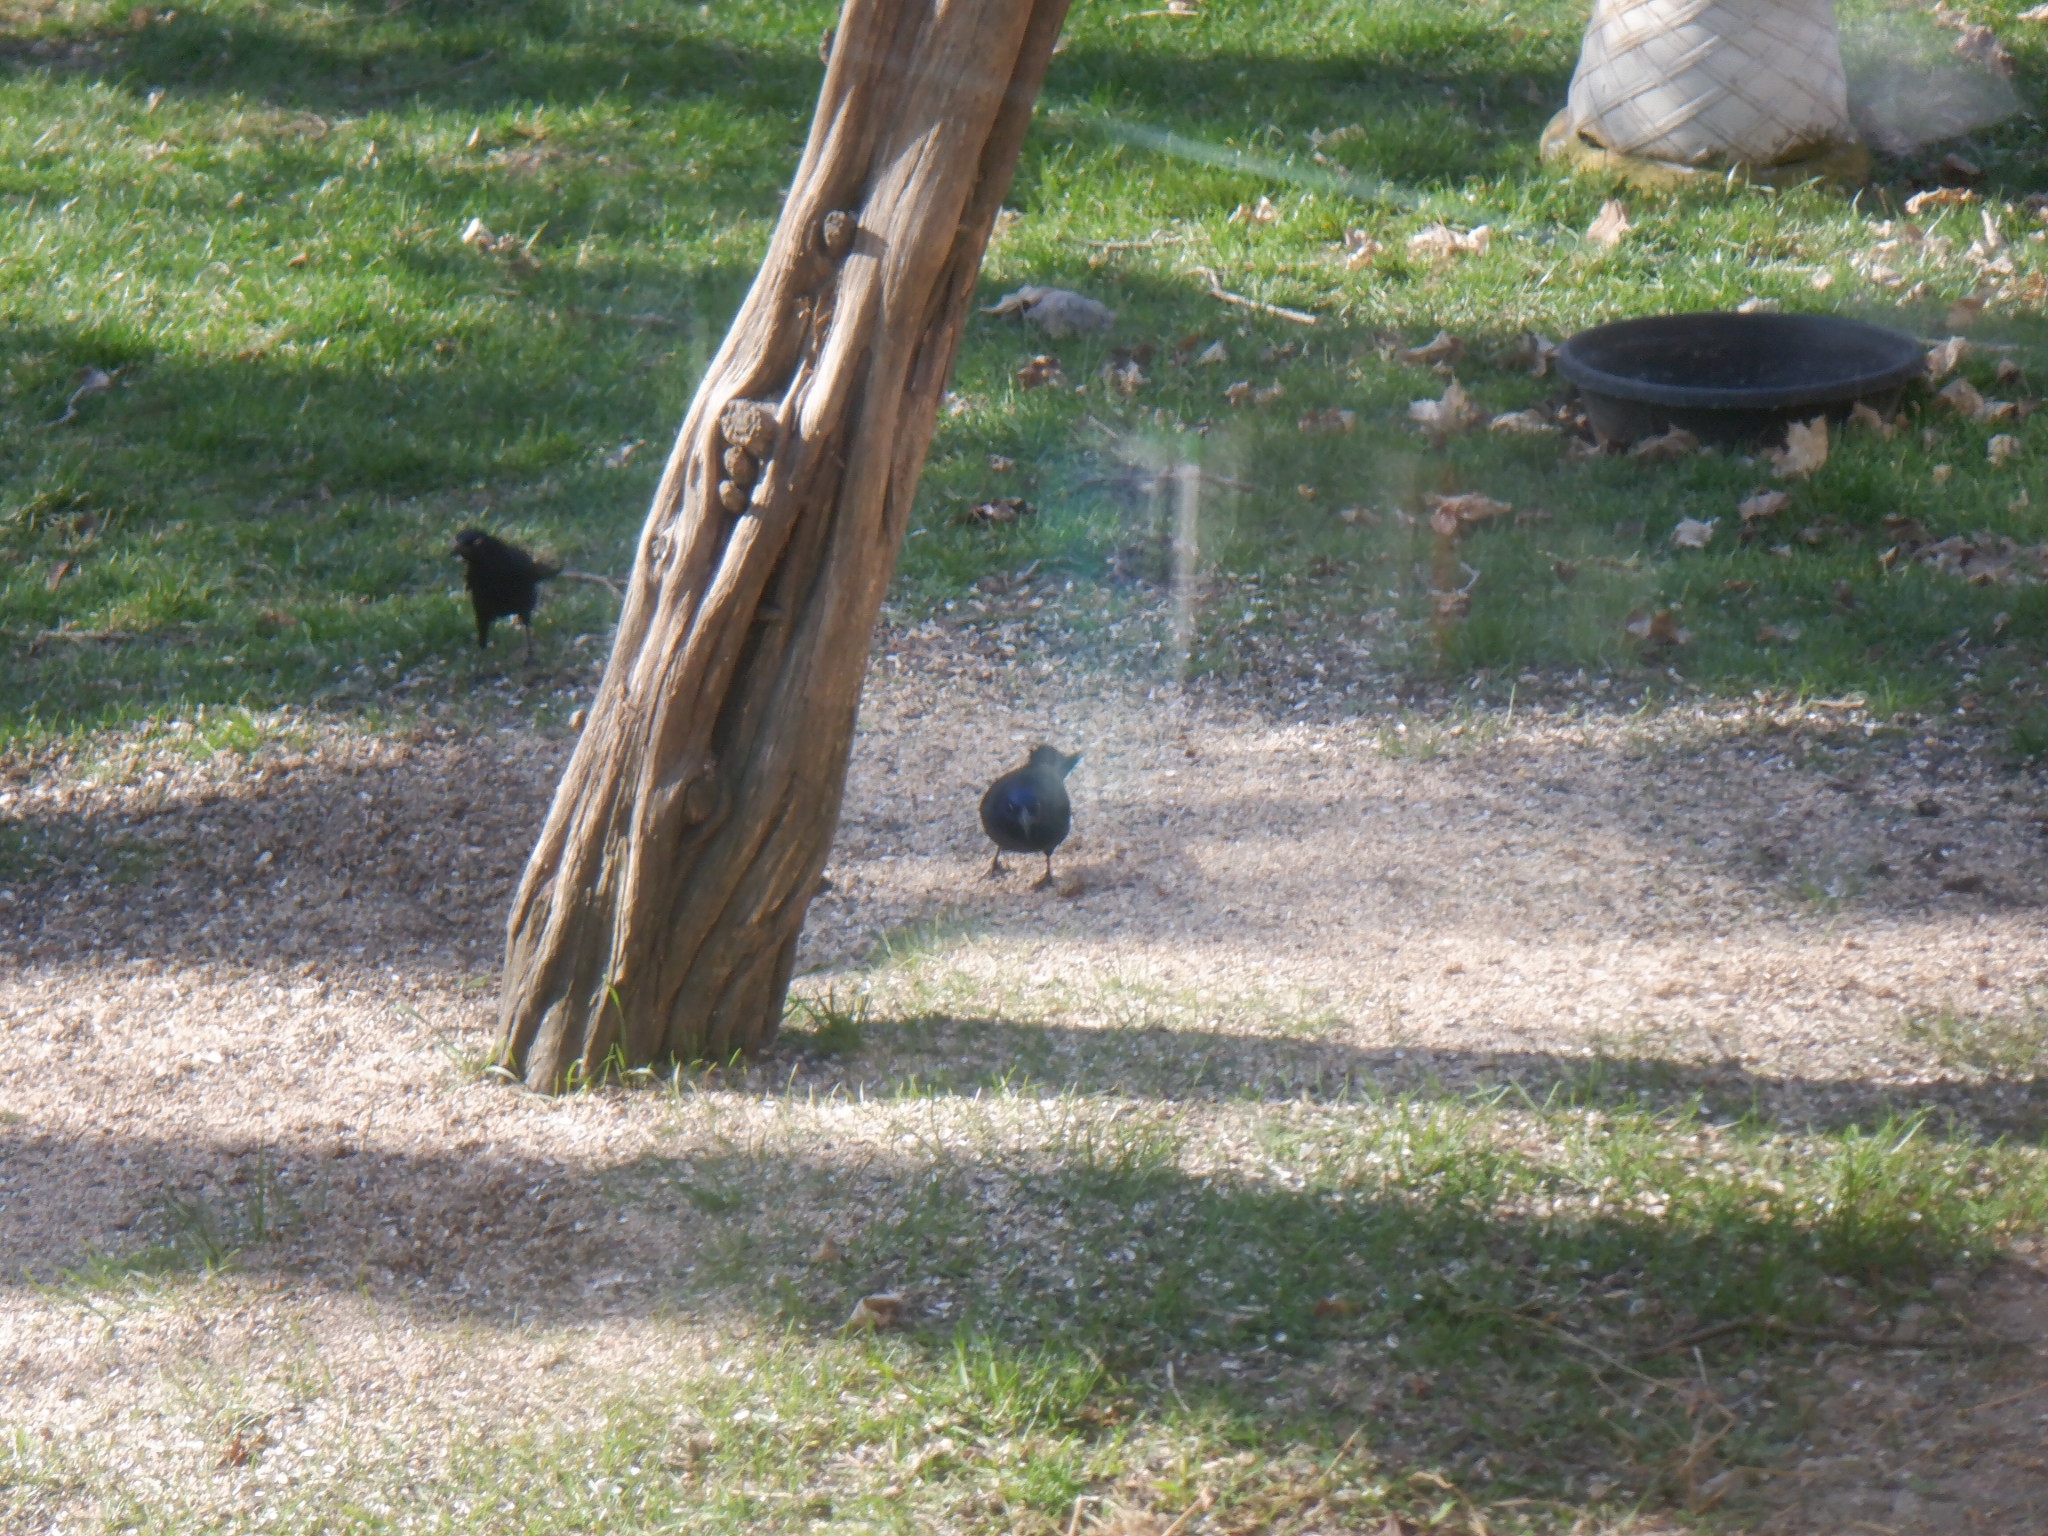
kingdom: Animalia
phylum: Chordata
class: Aves
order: Passeriformes
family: Icteridae
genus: Quiscalus
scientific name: Quiscalus quiscula
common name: Common grackle
